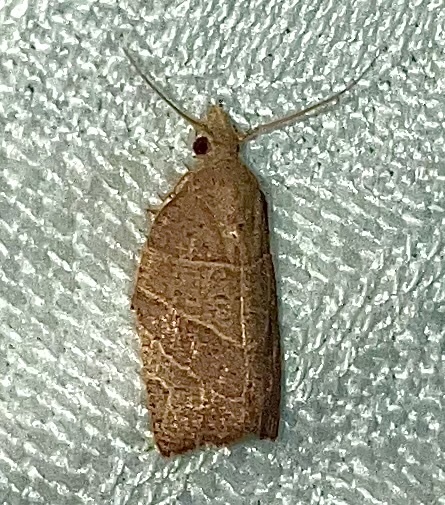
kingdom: Animalia
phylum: Arthropoda
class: Insecta
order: Lepidoptera
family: Tortricidae
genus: Pandemis
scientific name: Pandemis limitata
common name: Three-lined leafroller moth
